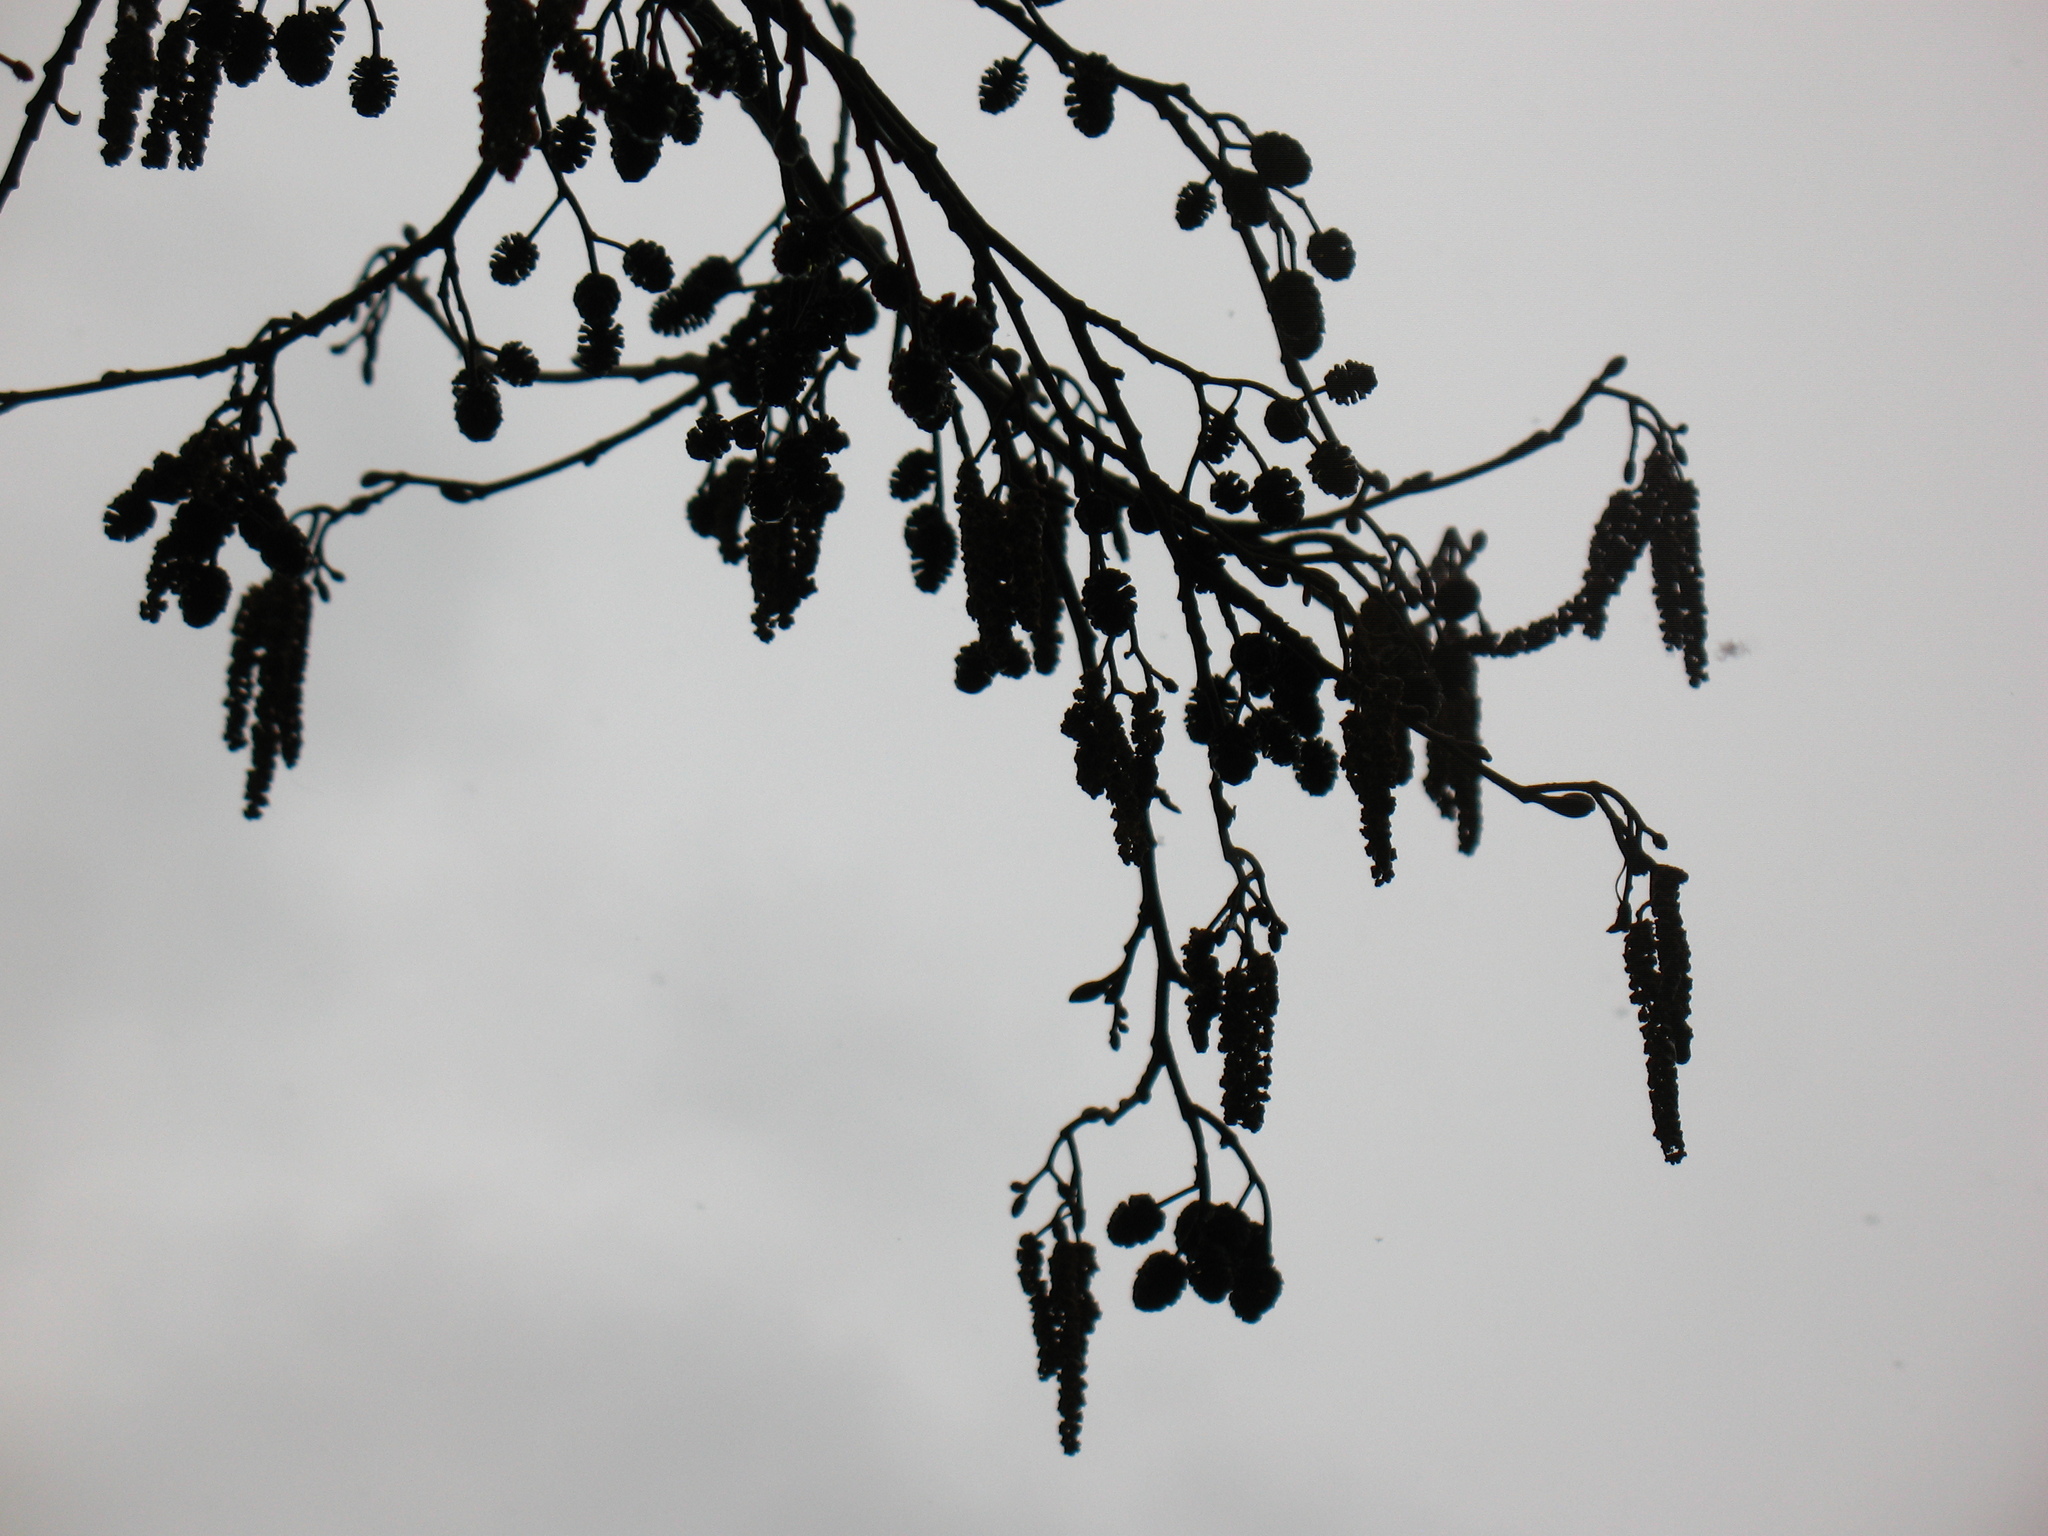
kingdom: Plantae
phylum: Tracheophyta
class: Magnoliopsida
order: Fagales
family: Betulaceae
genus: Alnus
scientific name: Alnus glutinosa
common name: Black alder
